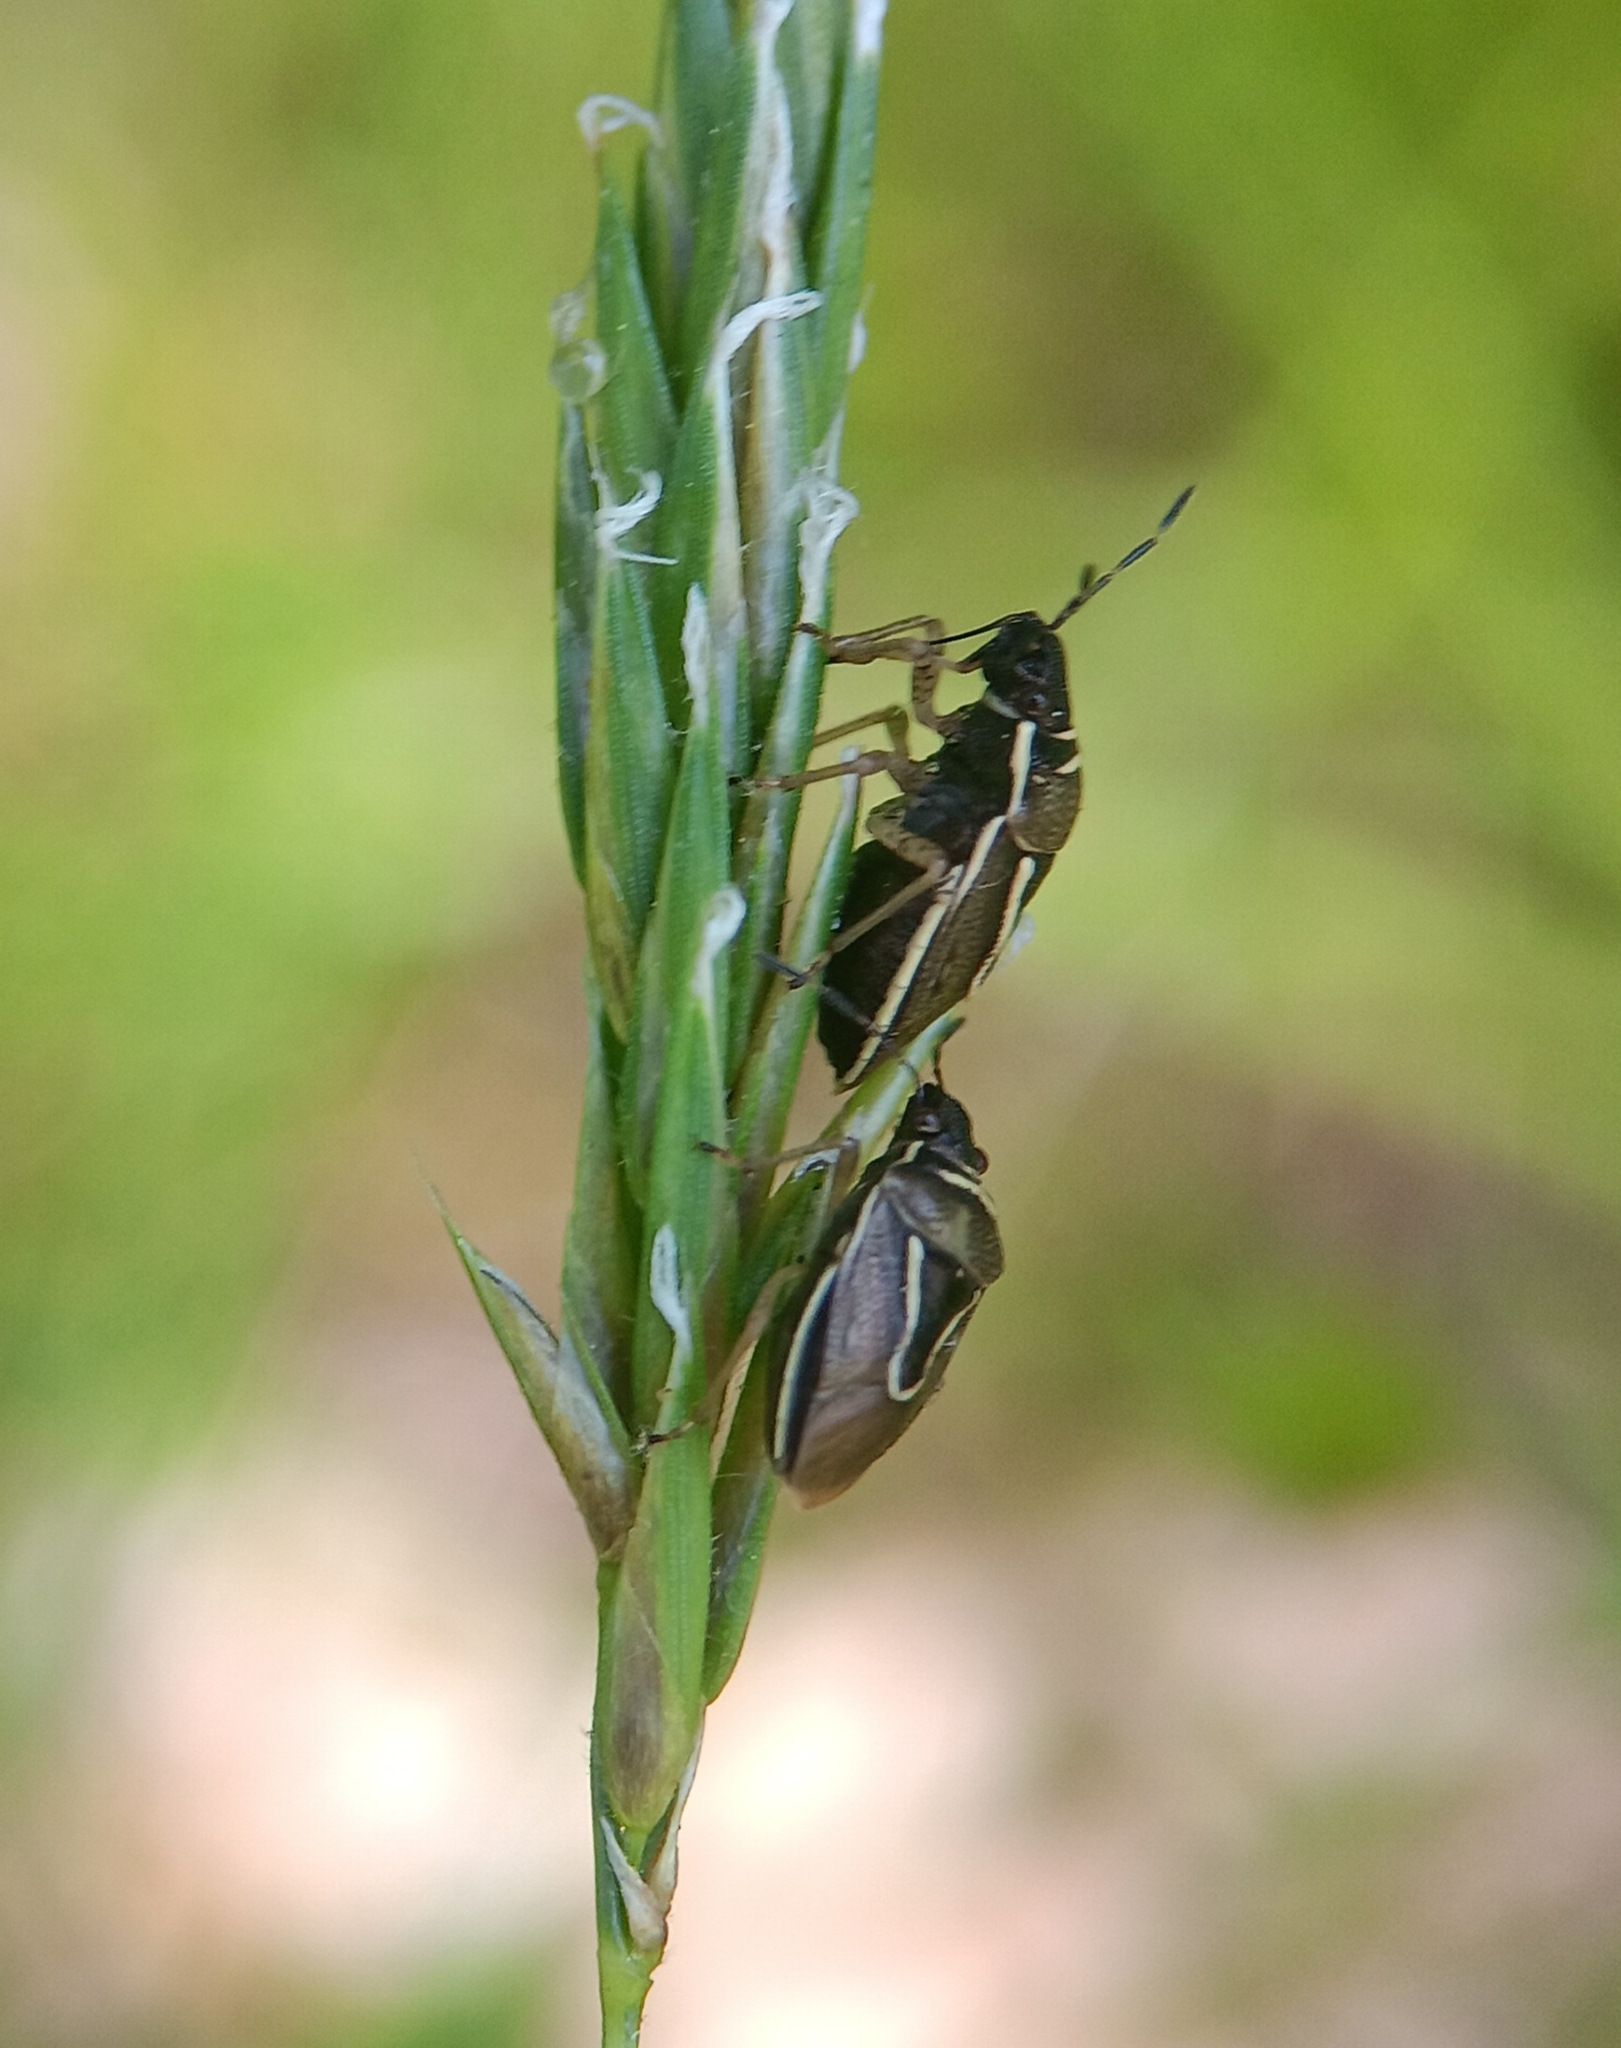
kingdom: Animalia
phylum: Arthropoda
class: Insecta
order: Hemiptera
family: Pentatomidae
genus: Mormidea
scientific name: Mormidea lugens
